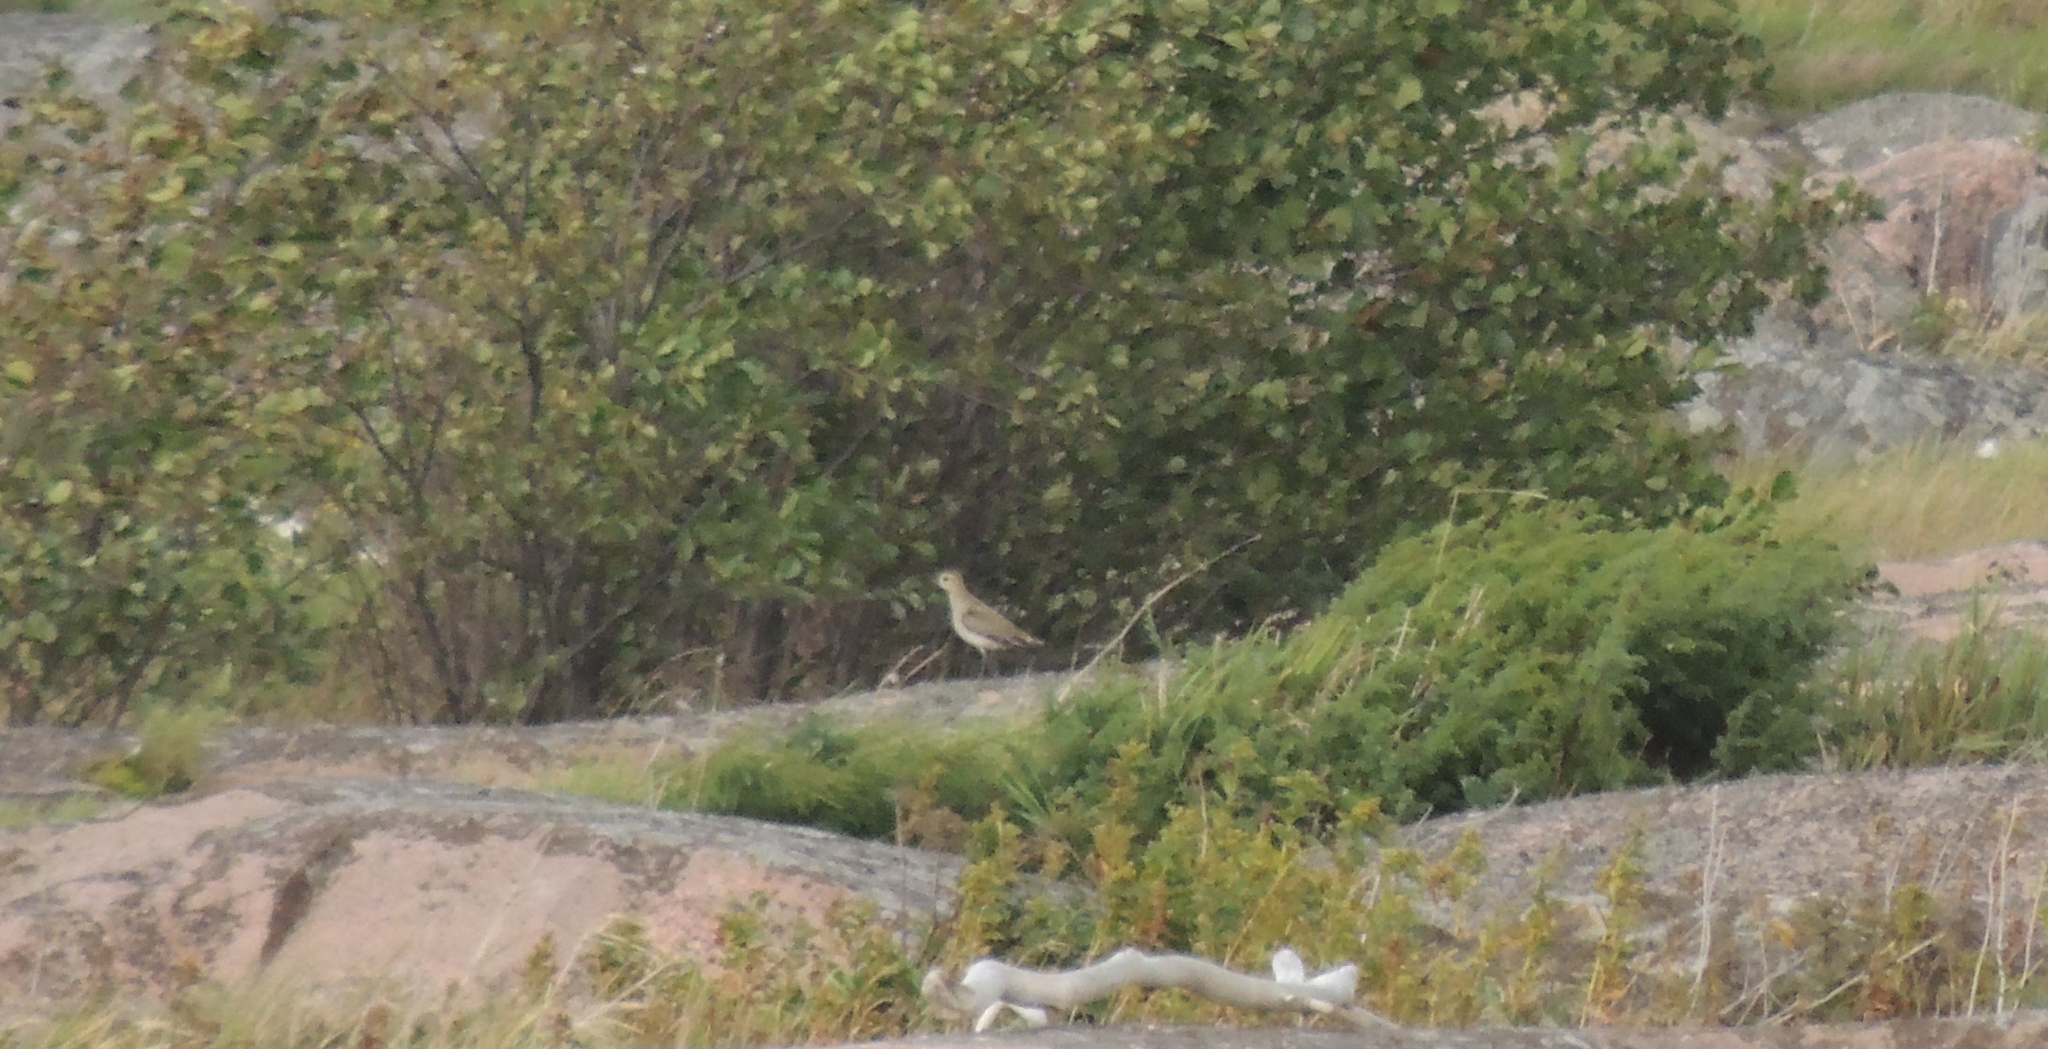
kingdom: Animalia
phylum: Chordata
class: Aves
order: Charadriiformes
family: Charadriidae
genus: Pluvialis
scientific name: Pluvialis apricaria
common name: European golden plover
